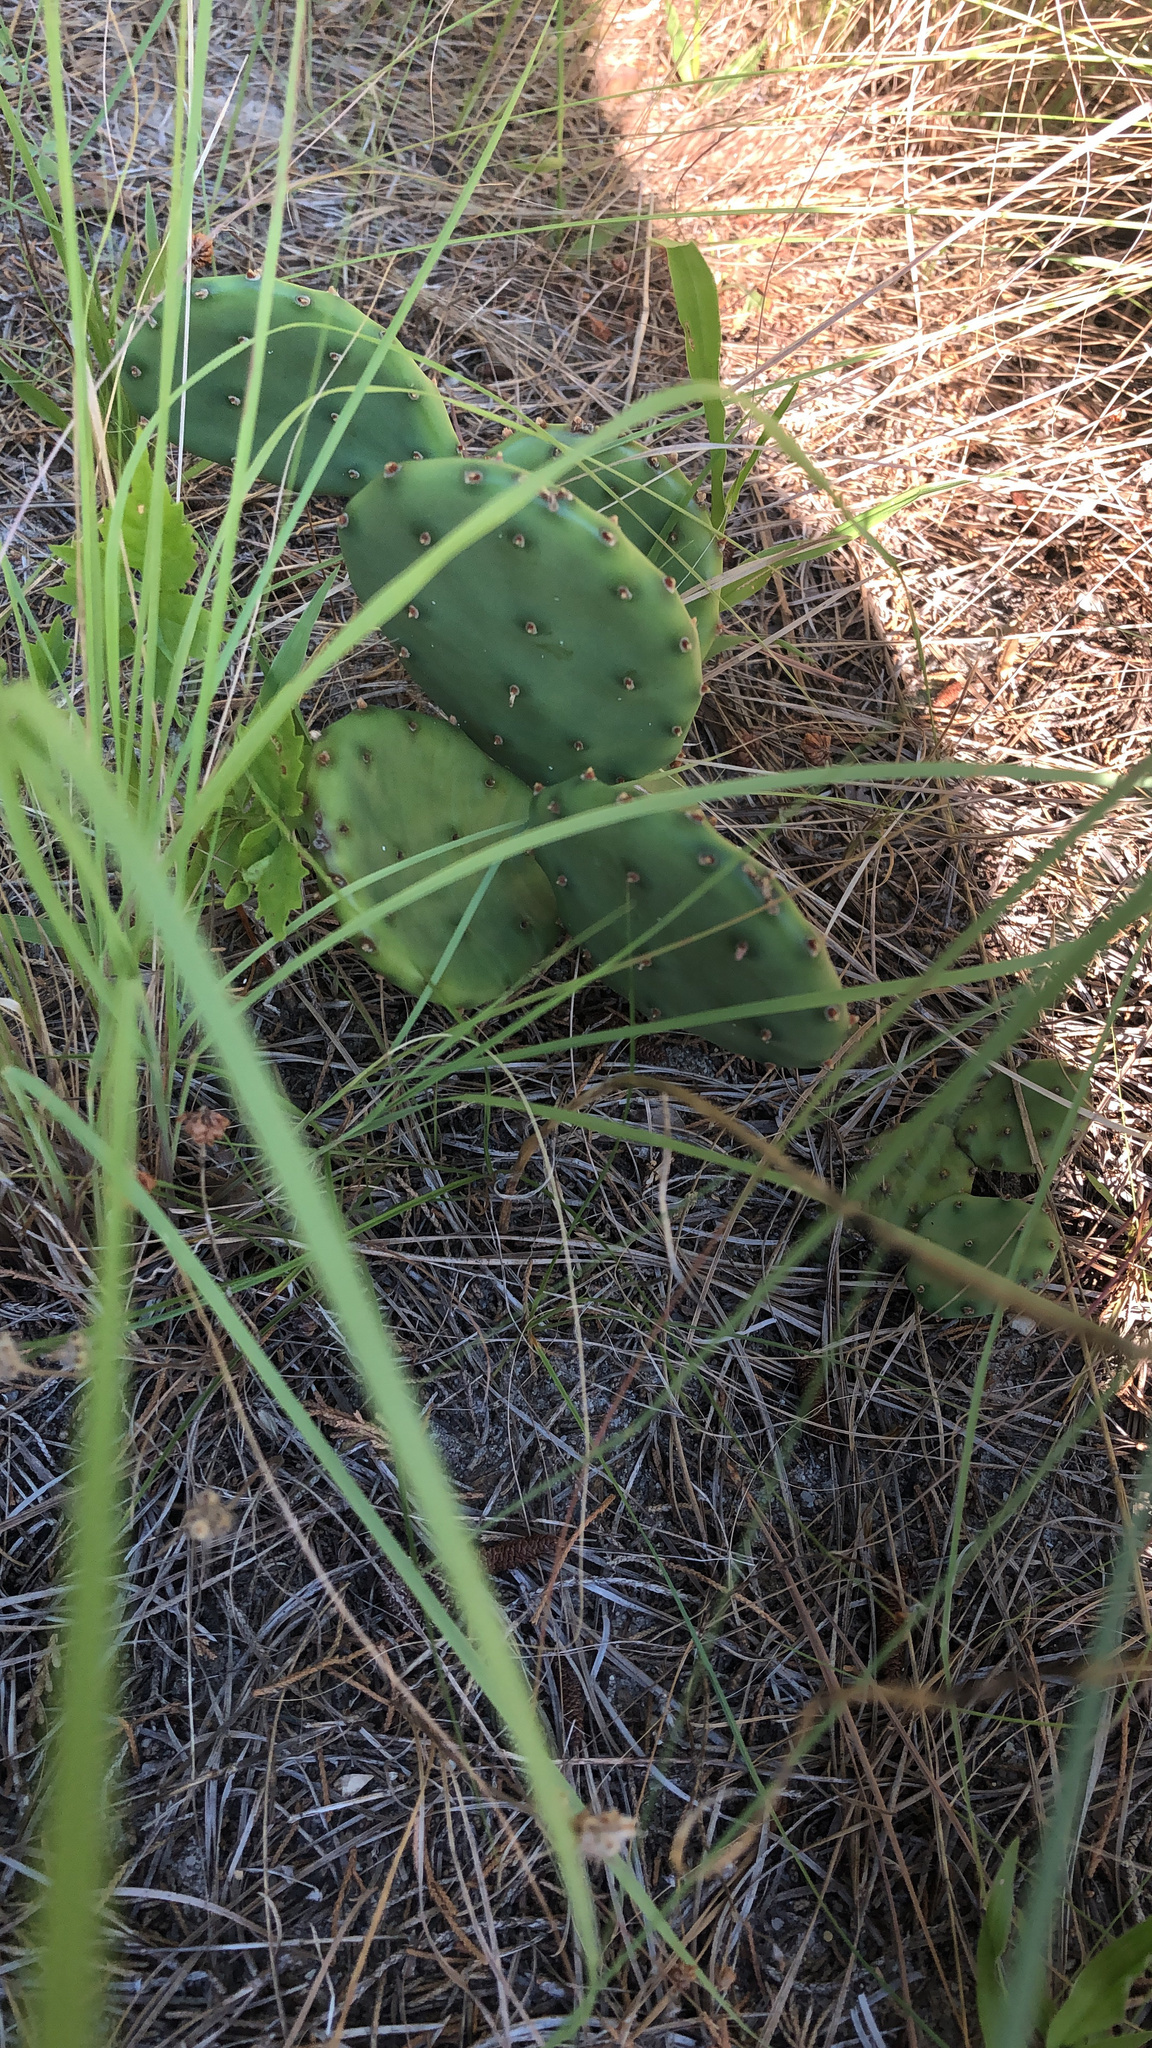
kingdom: Plantae
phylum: Tracheophyta
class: Magnoliopsida
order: Caryophyllales
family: Cactaceae
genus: Opuntia
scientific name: Opuntia humifusa
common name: Eastern prickly-pear
